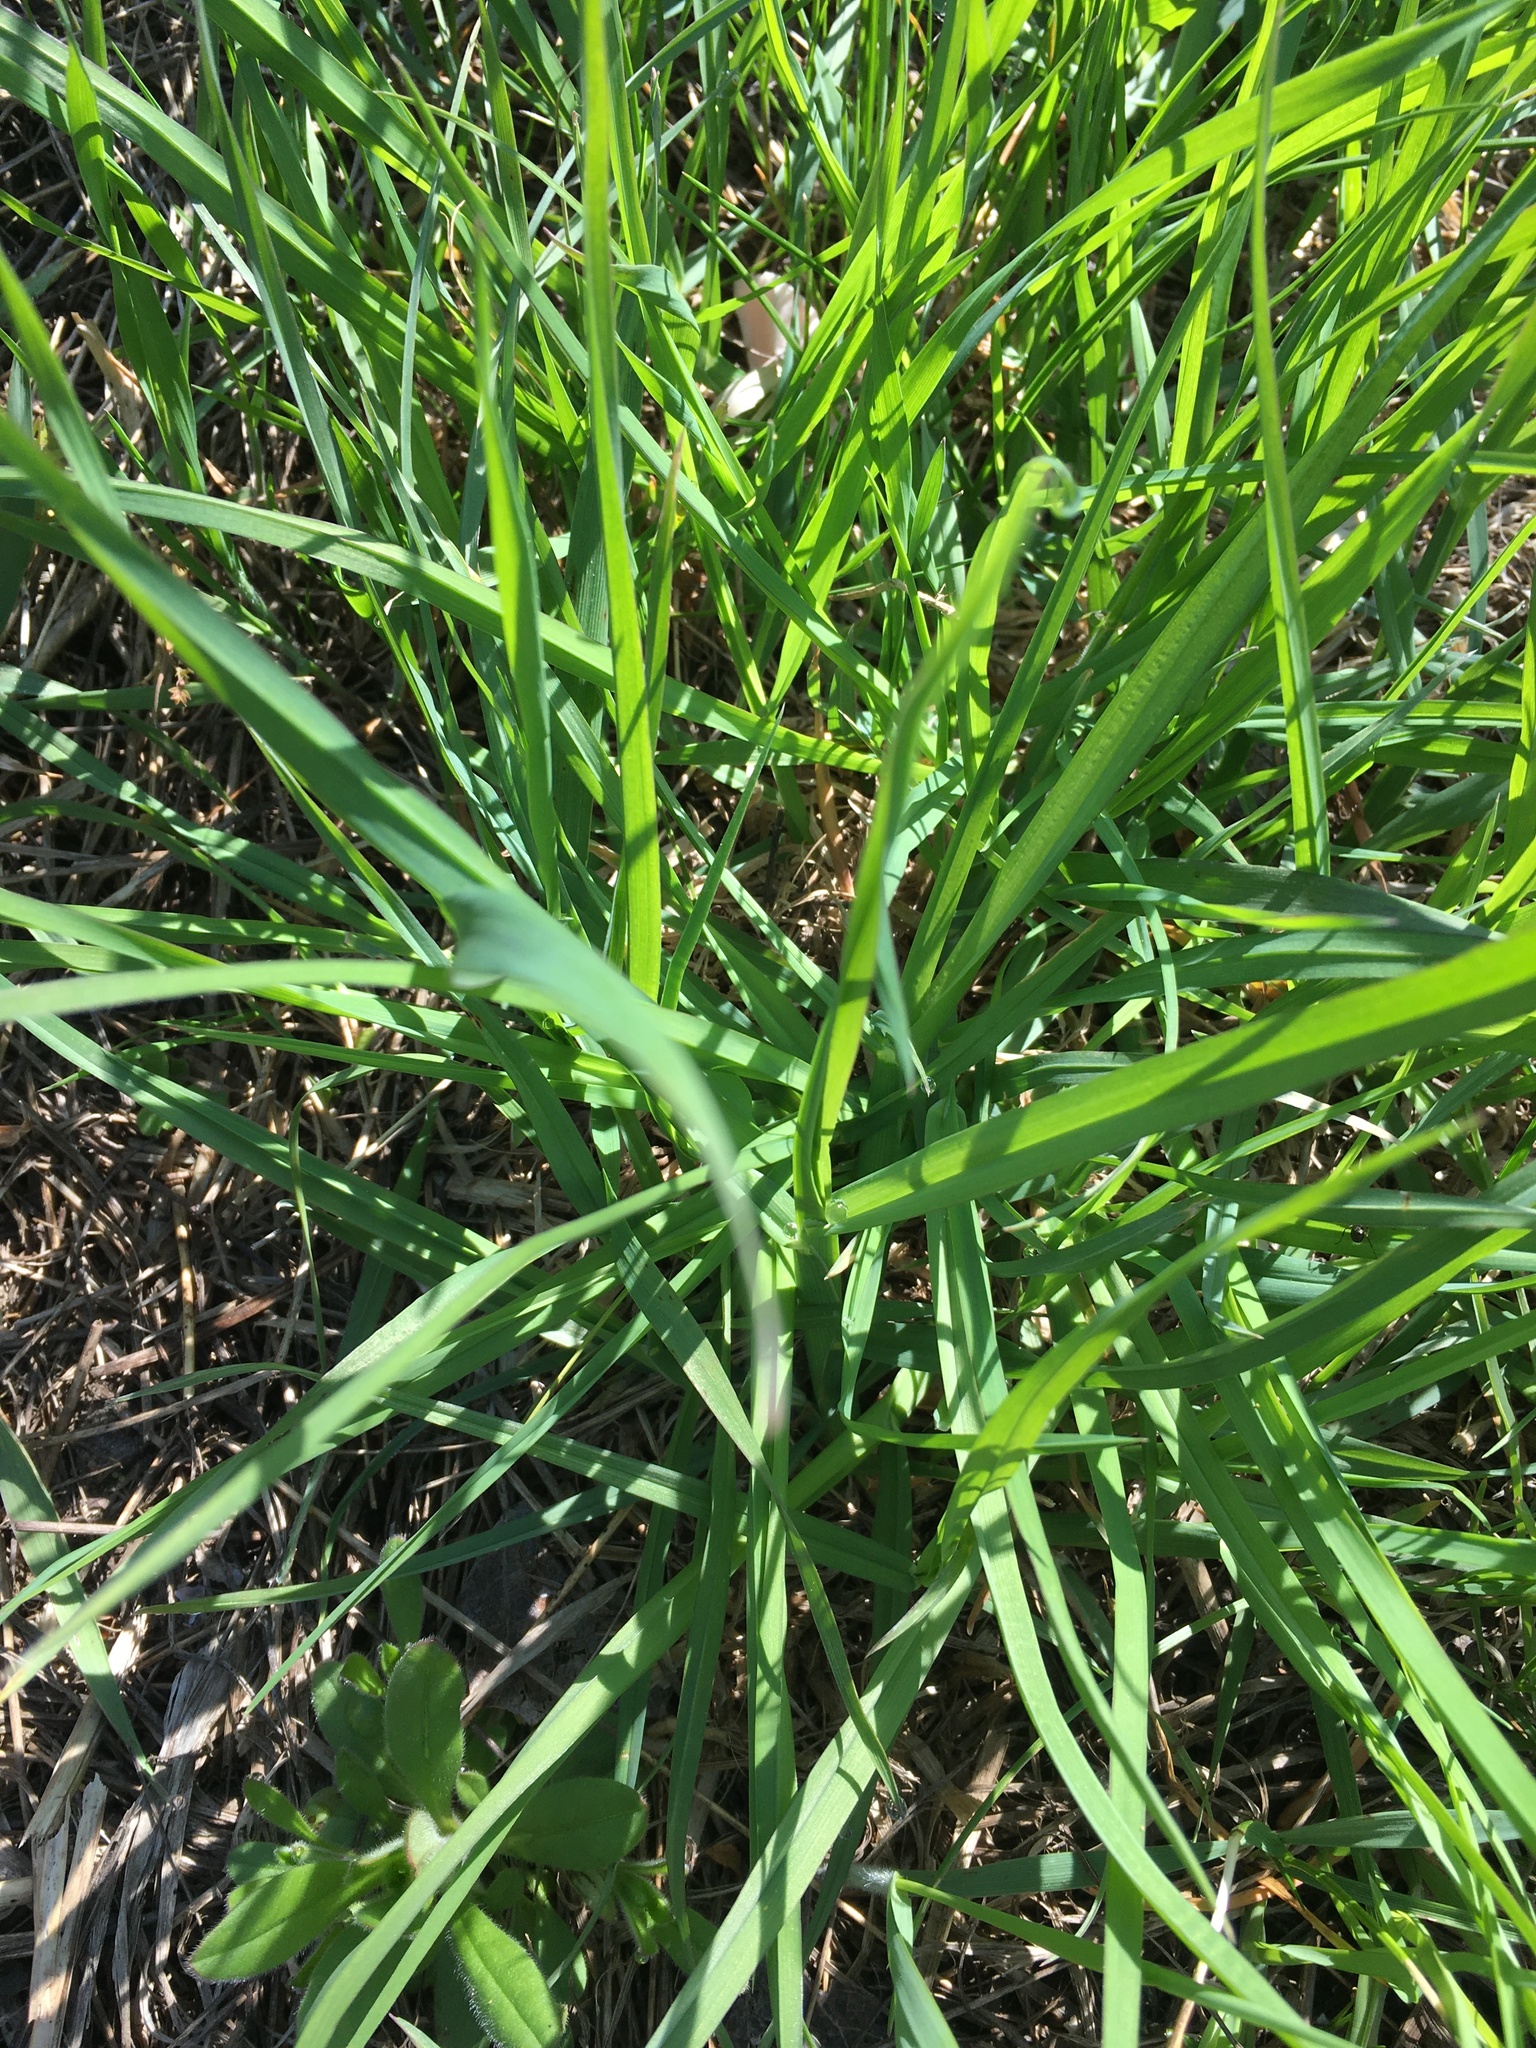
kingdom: Plantae
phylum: Tracheophyta
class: Liliopsida
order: Poales
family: Poaceae
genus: Dactylis
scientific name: Dactylis glomerata
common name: Orchardgrass
